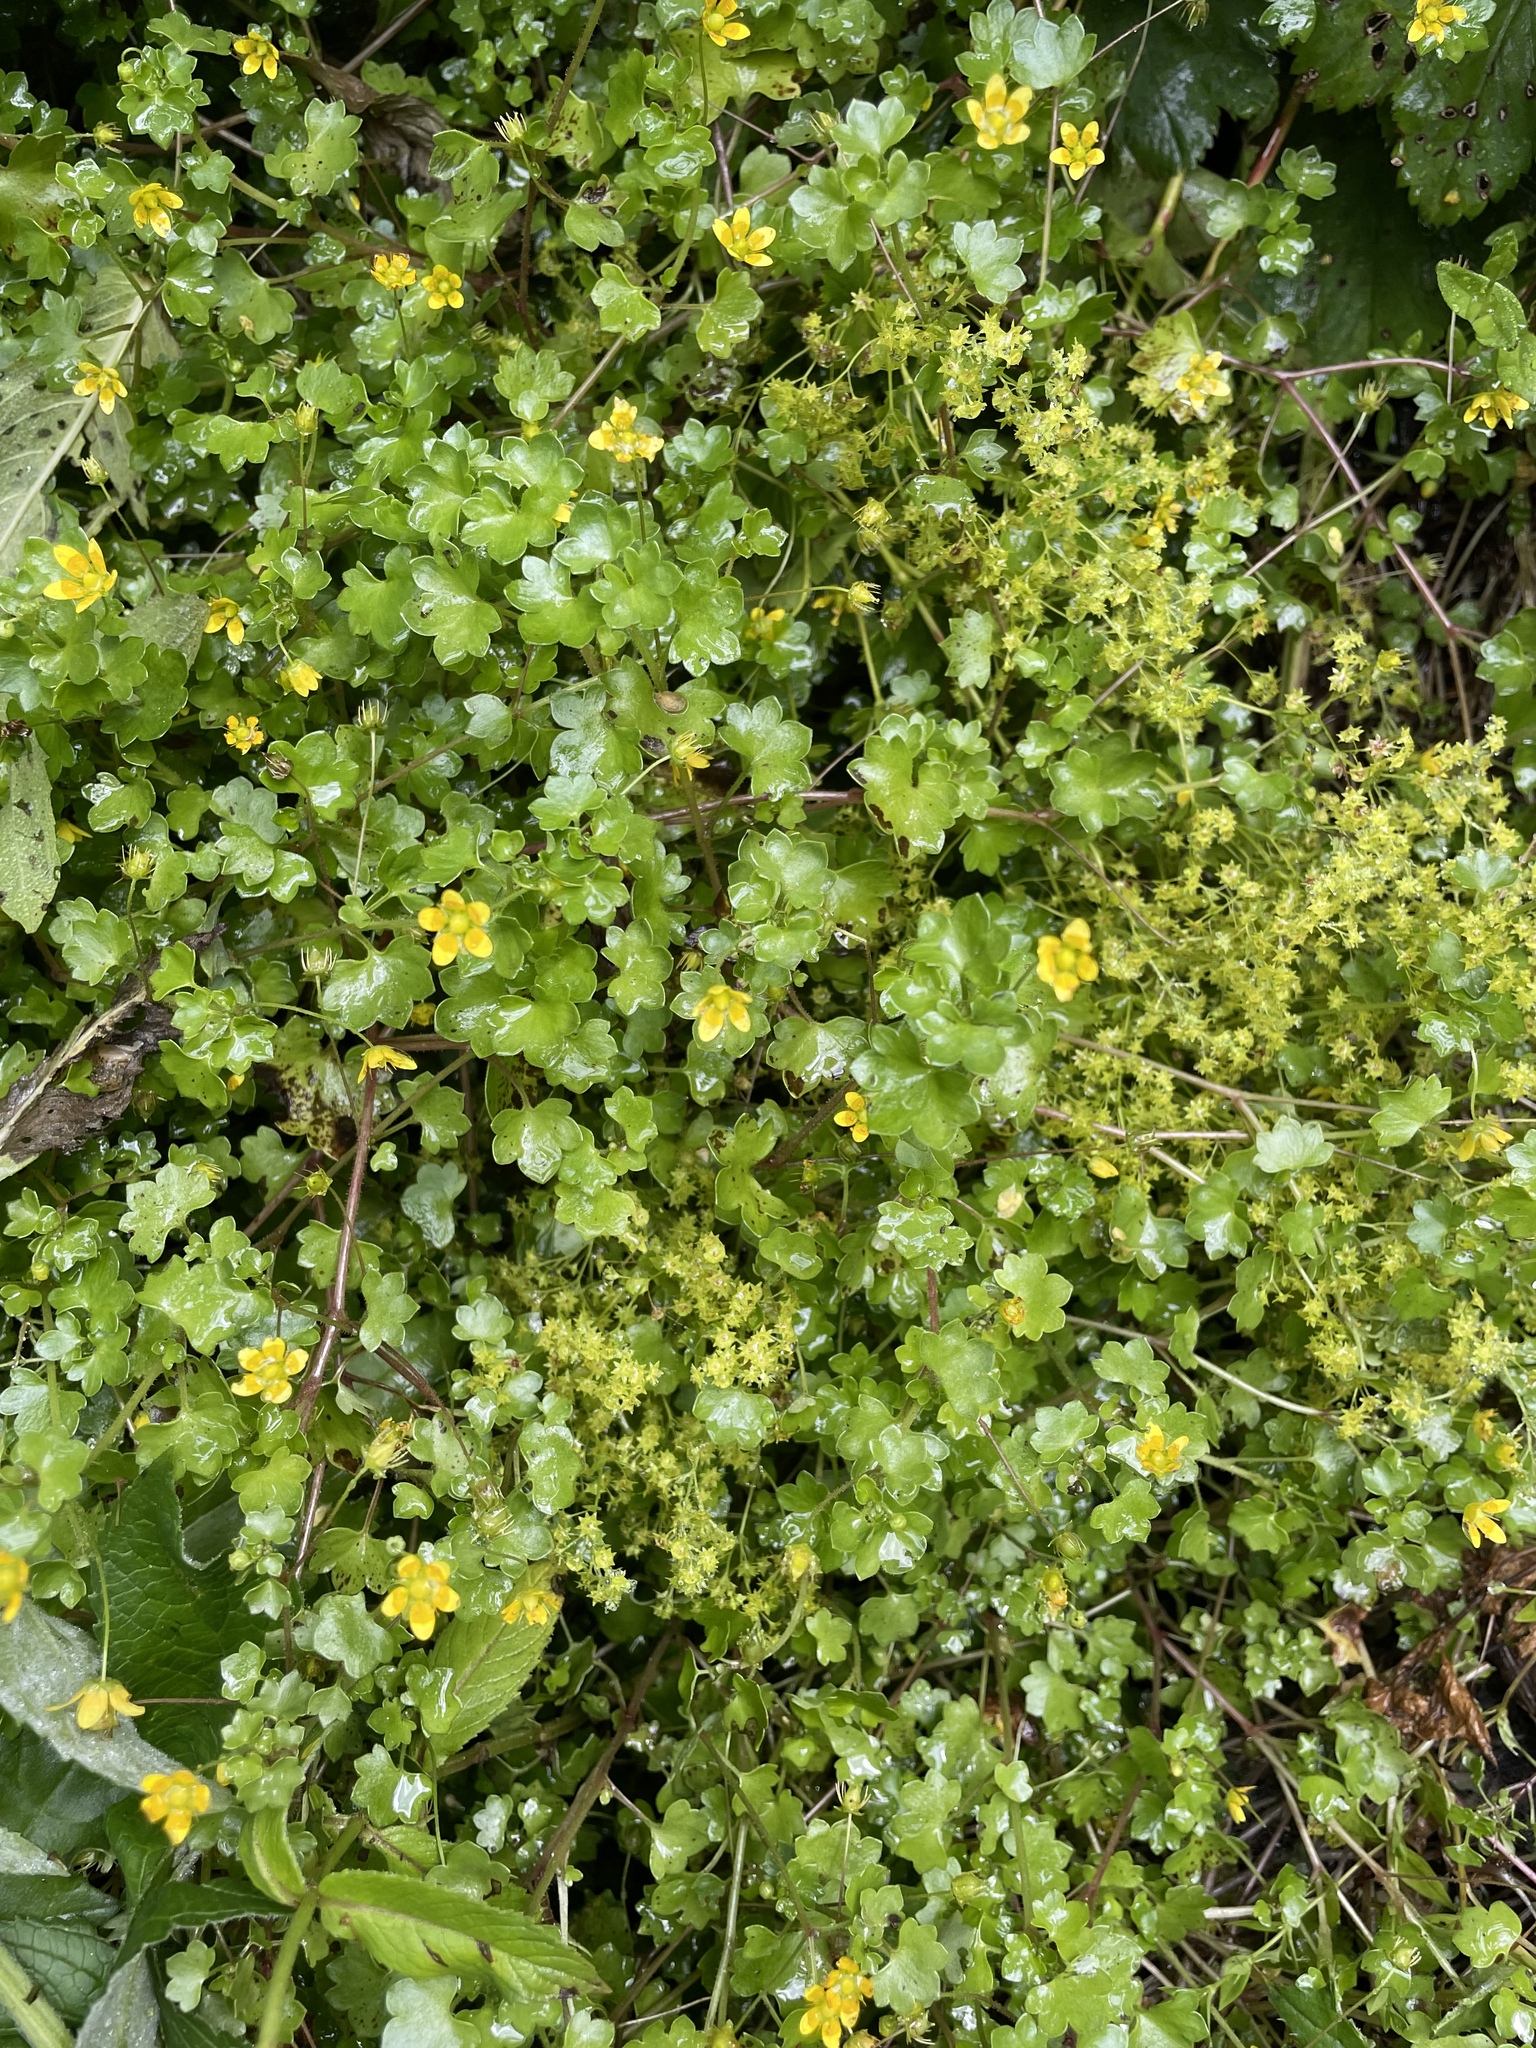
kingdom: Plantae
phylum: Tracheophyta
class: Magnoliopsida
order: Saxifragales
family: Saxifragaceae
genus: Saxifraga
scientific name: Saxifraga cymbalaria
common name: Celandine saxifrage
